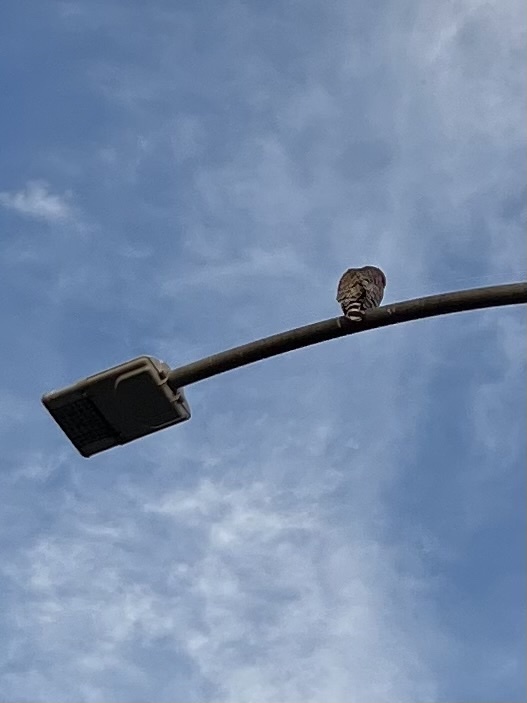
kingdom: Animalia
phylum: Chordata
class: Aves
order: Accipitriformes
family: Accipitridae
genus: Buteo
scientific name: Buteo lineatus
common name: Red-shouldered hawk
